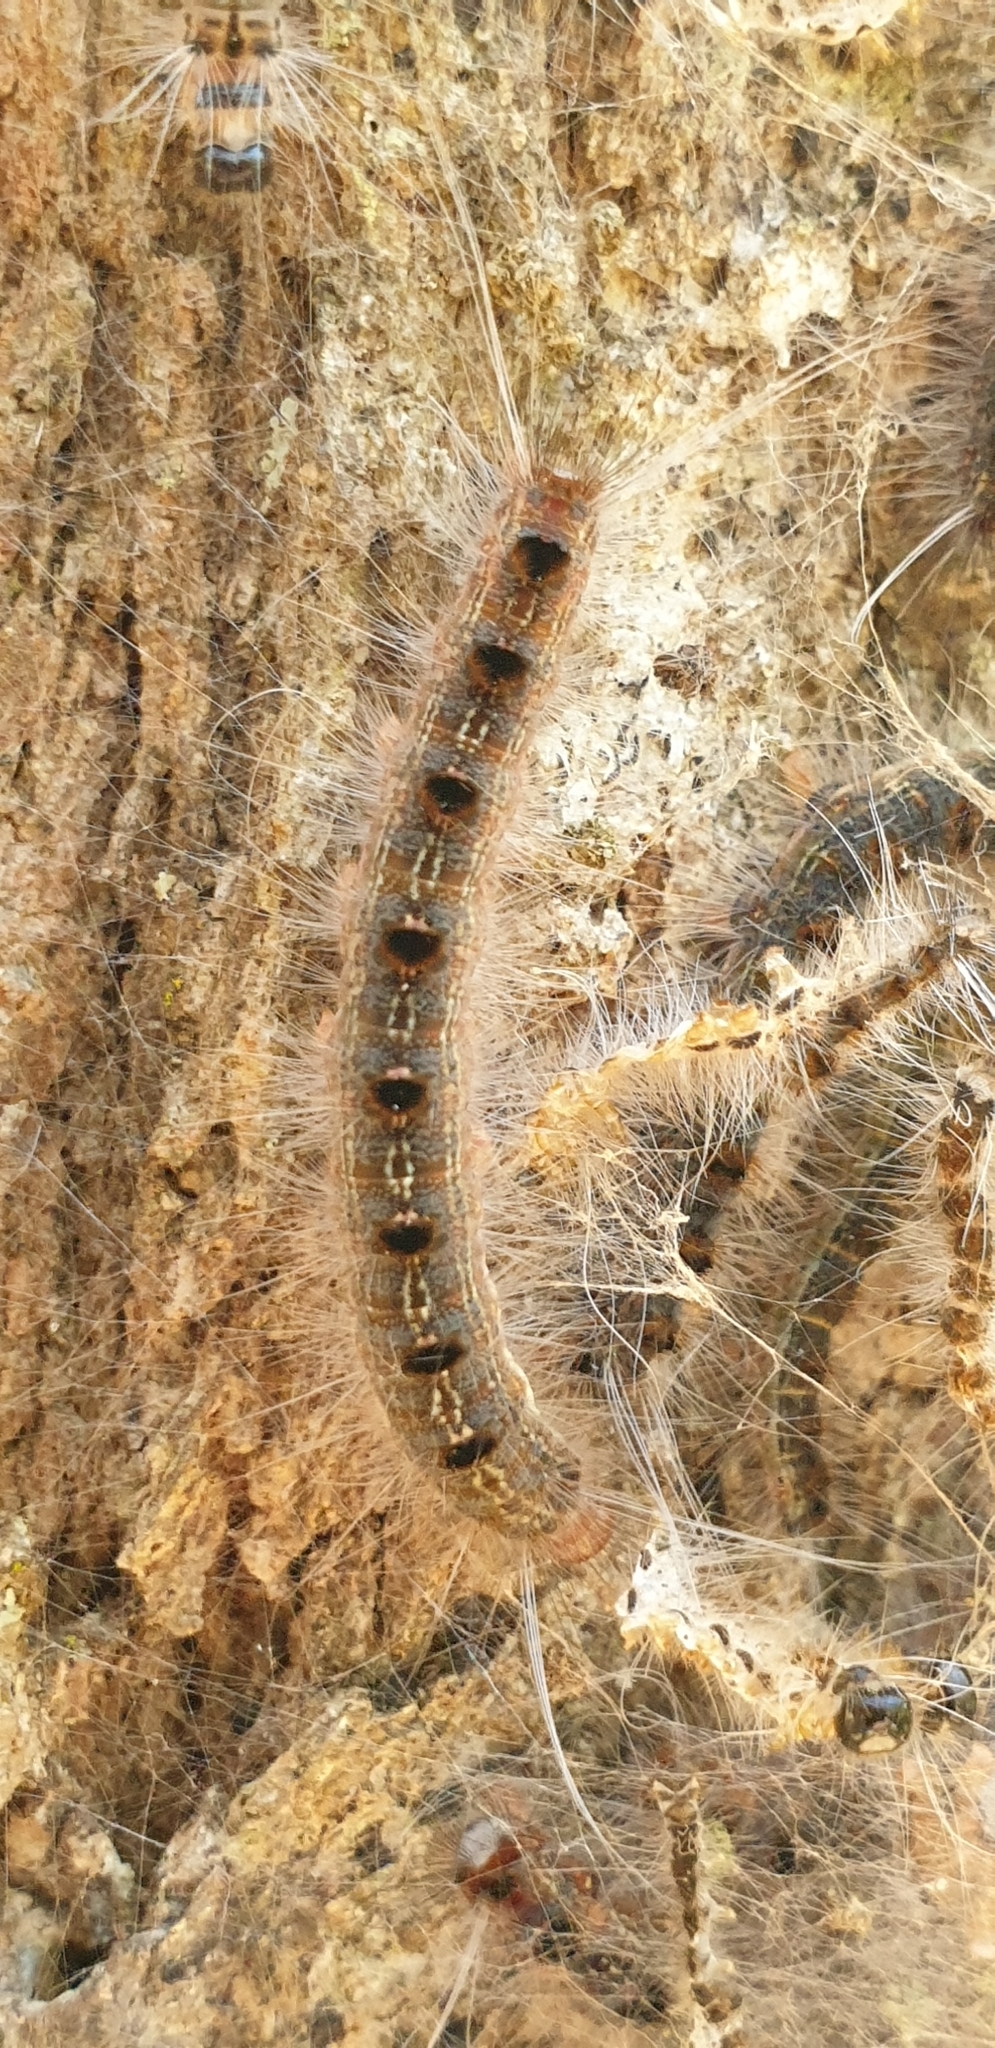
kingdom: Animalia
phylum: Arthropoda
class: Insecta
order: Lepidoptera
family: Eupterotidae
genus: Panacela
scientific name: Panacela lewinae
